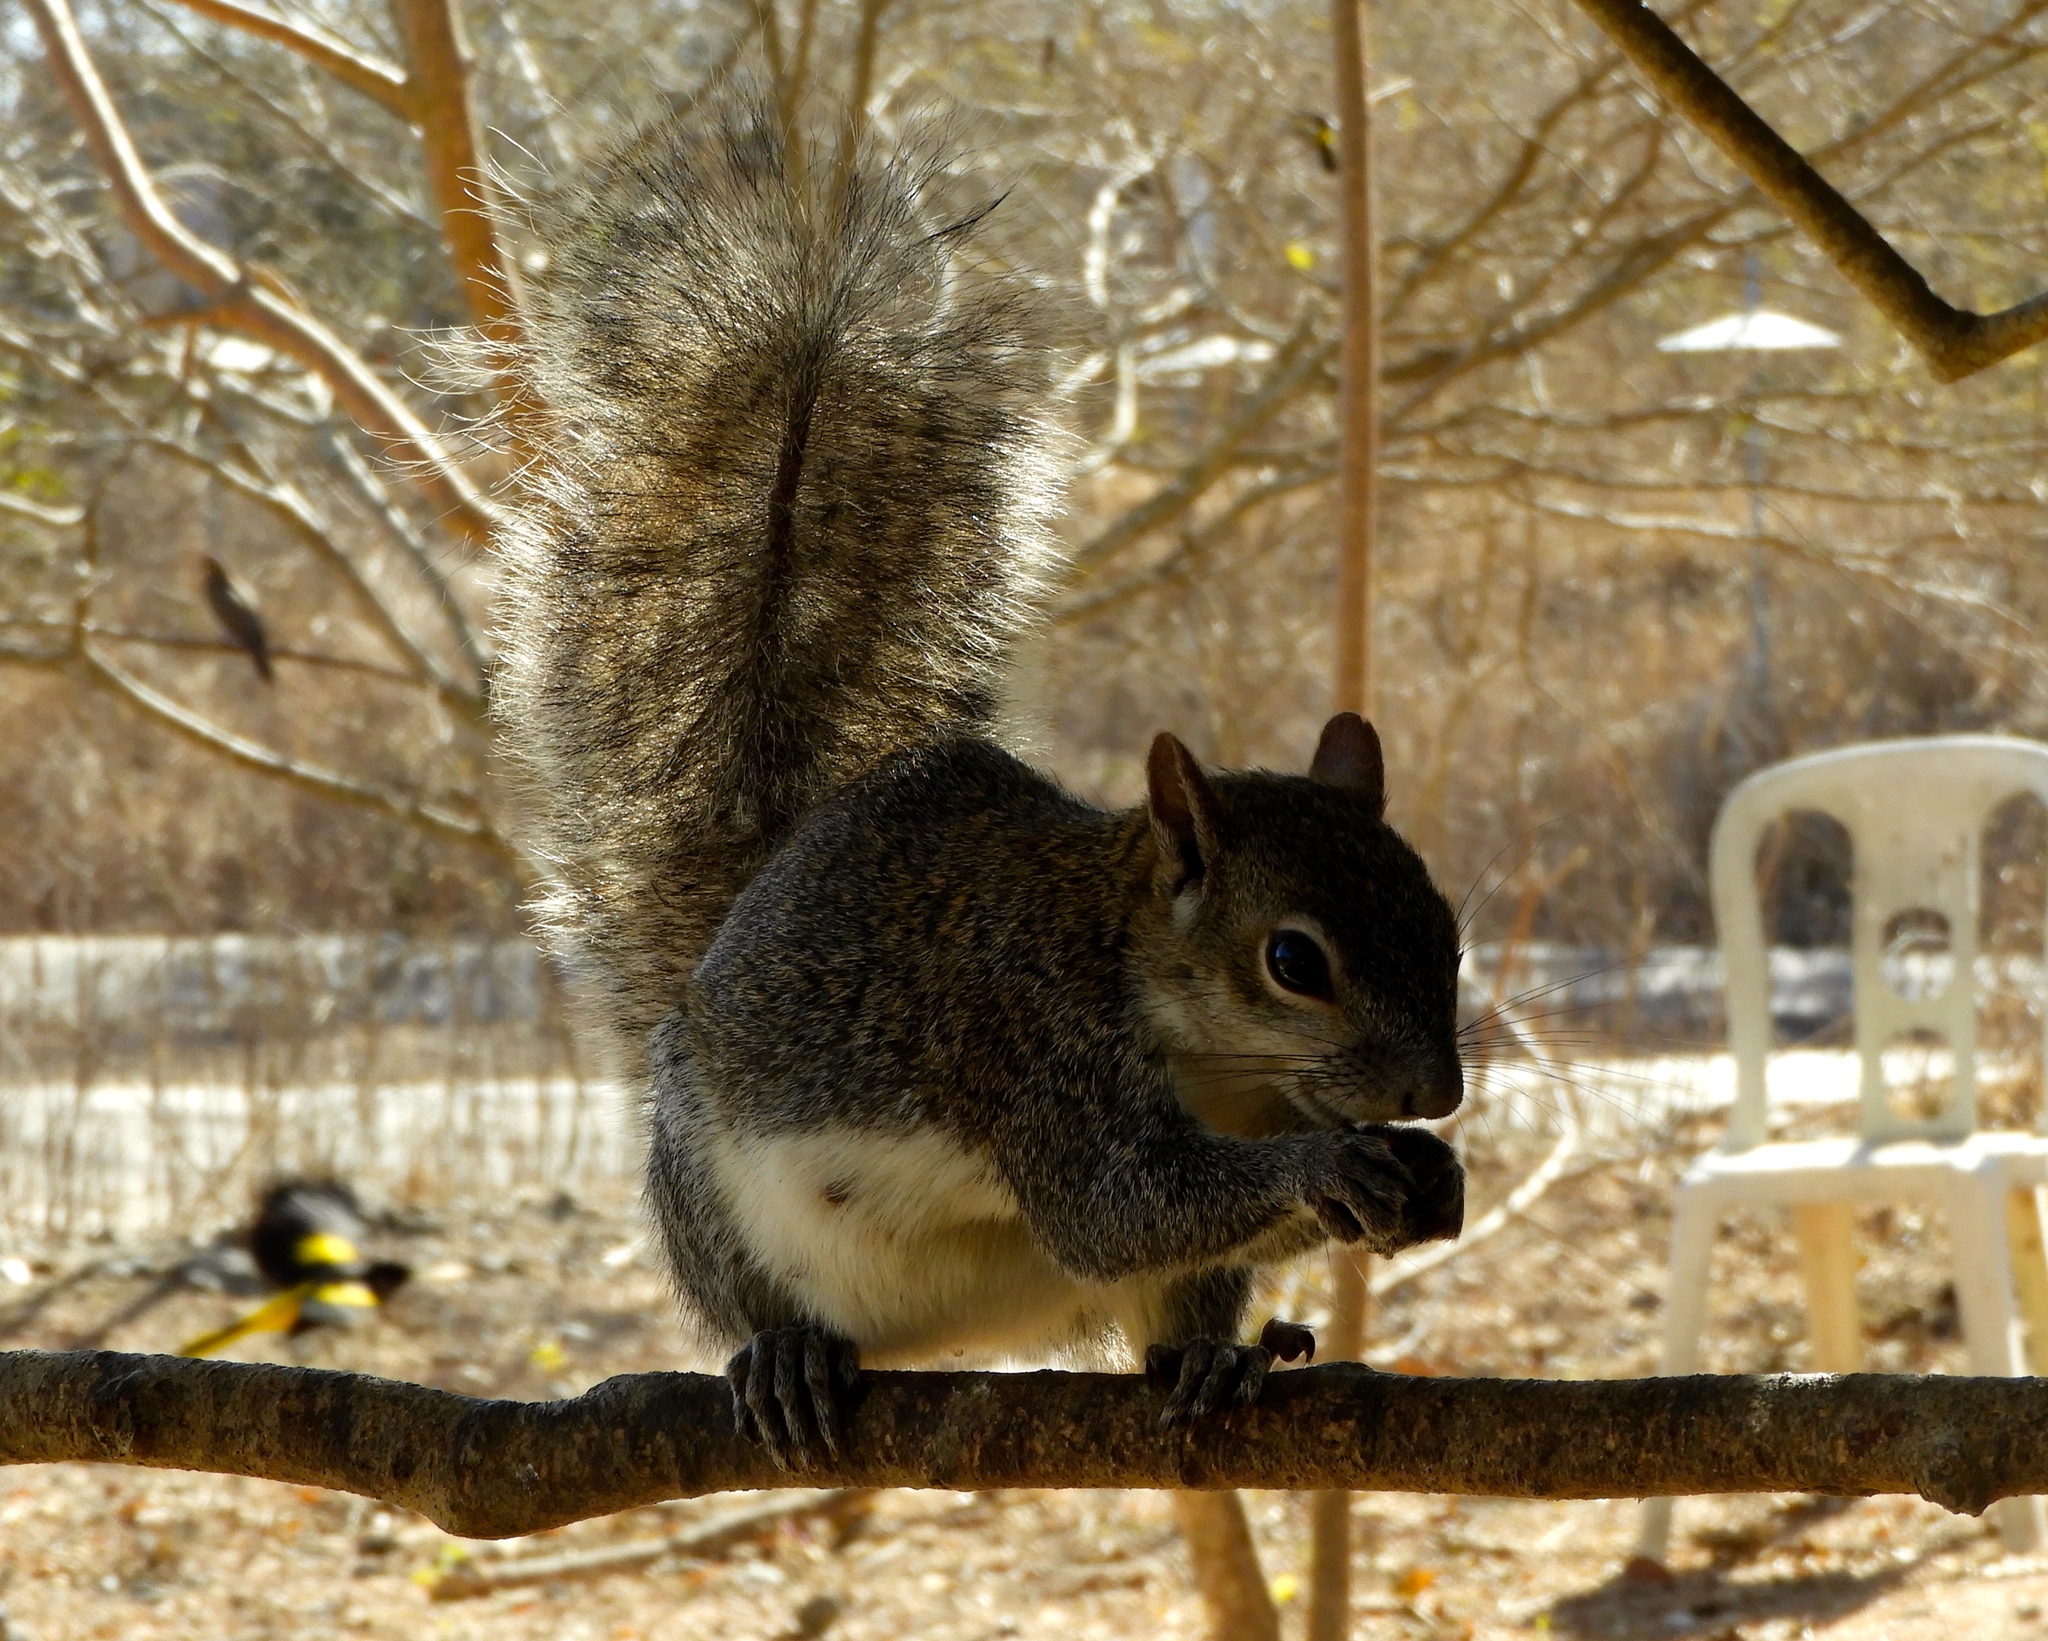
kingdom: Animalia
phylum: Chordata
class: Mammalia
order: Rodentia
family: Sciuridae
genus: Sciurus
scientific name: Sciurus colliaei
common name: Collie's squirrel
